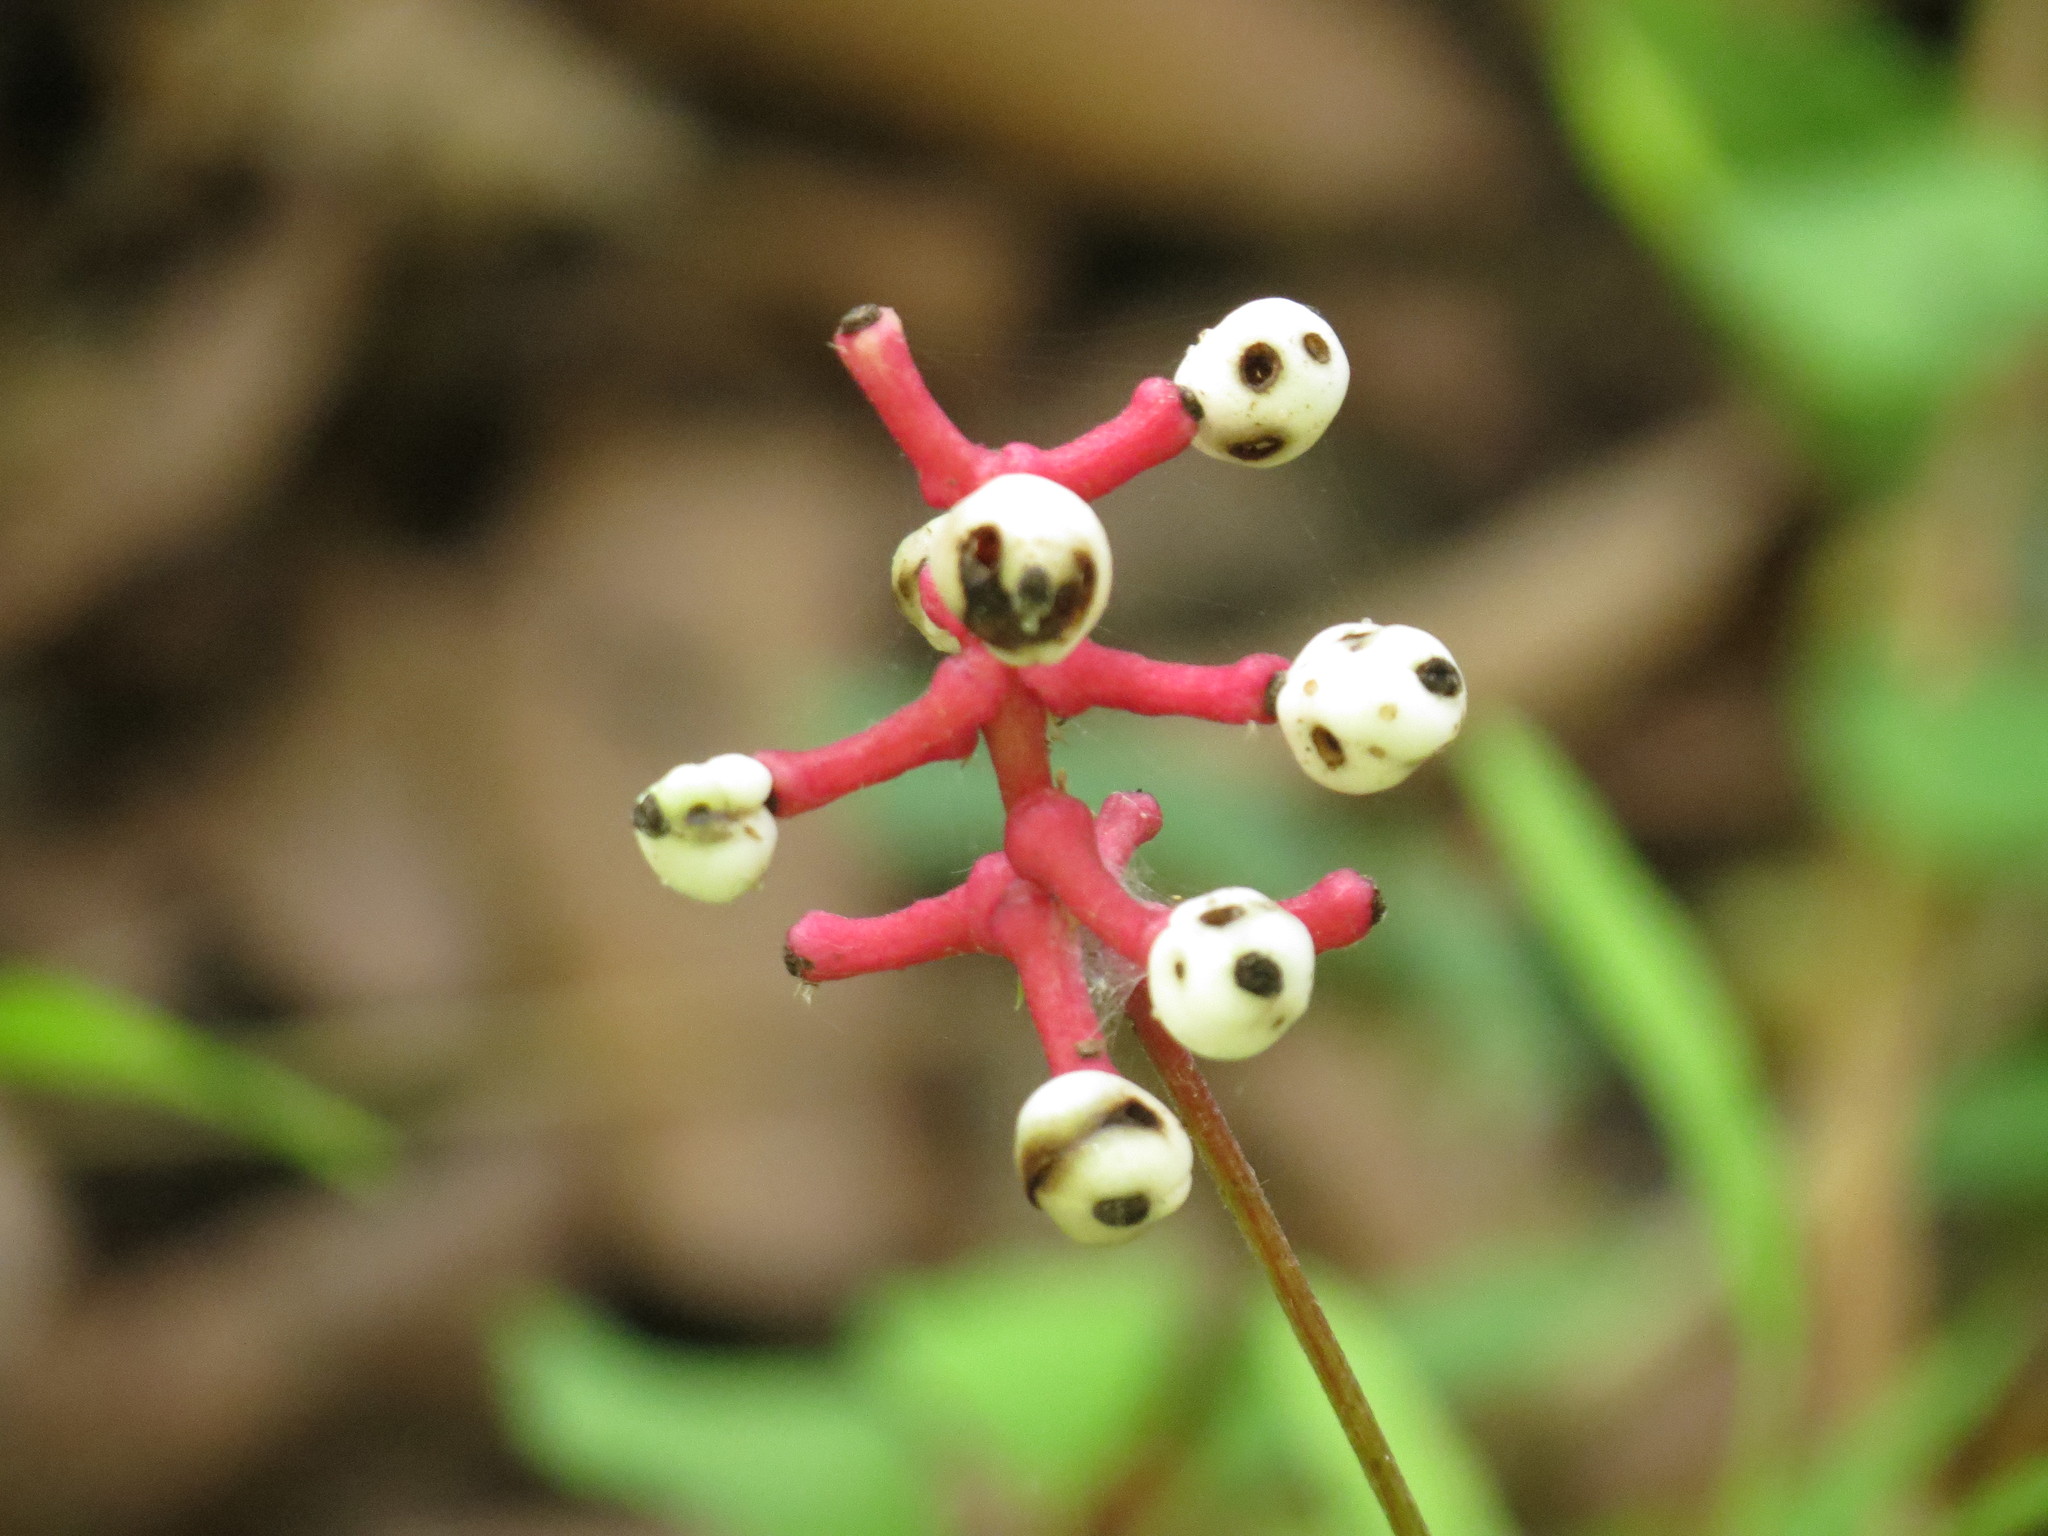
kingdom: Plantae
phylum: Tracheophyta
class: Magnoliopsida
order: Ranunculales
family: Ranunculaceae
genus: Actaea
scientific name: Actaea pachypoda
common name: Doll's-eyes
